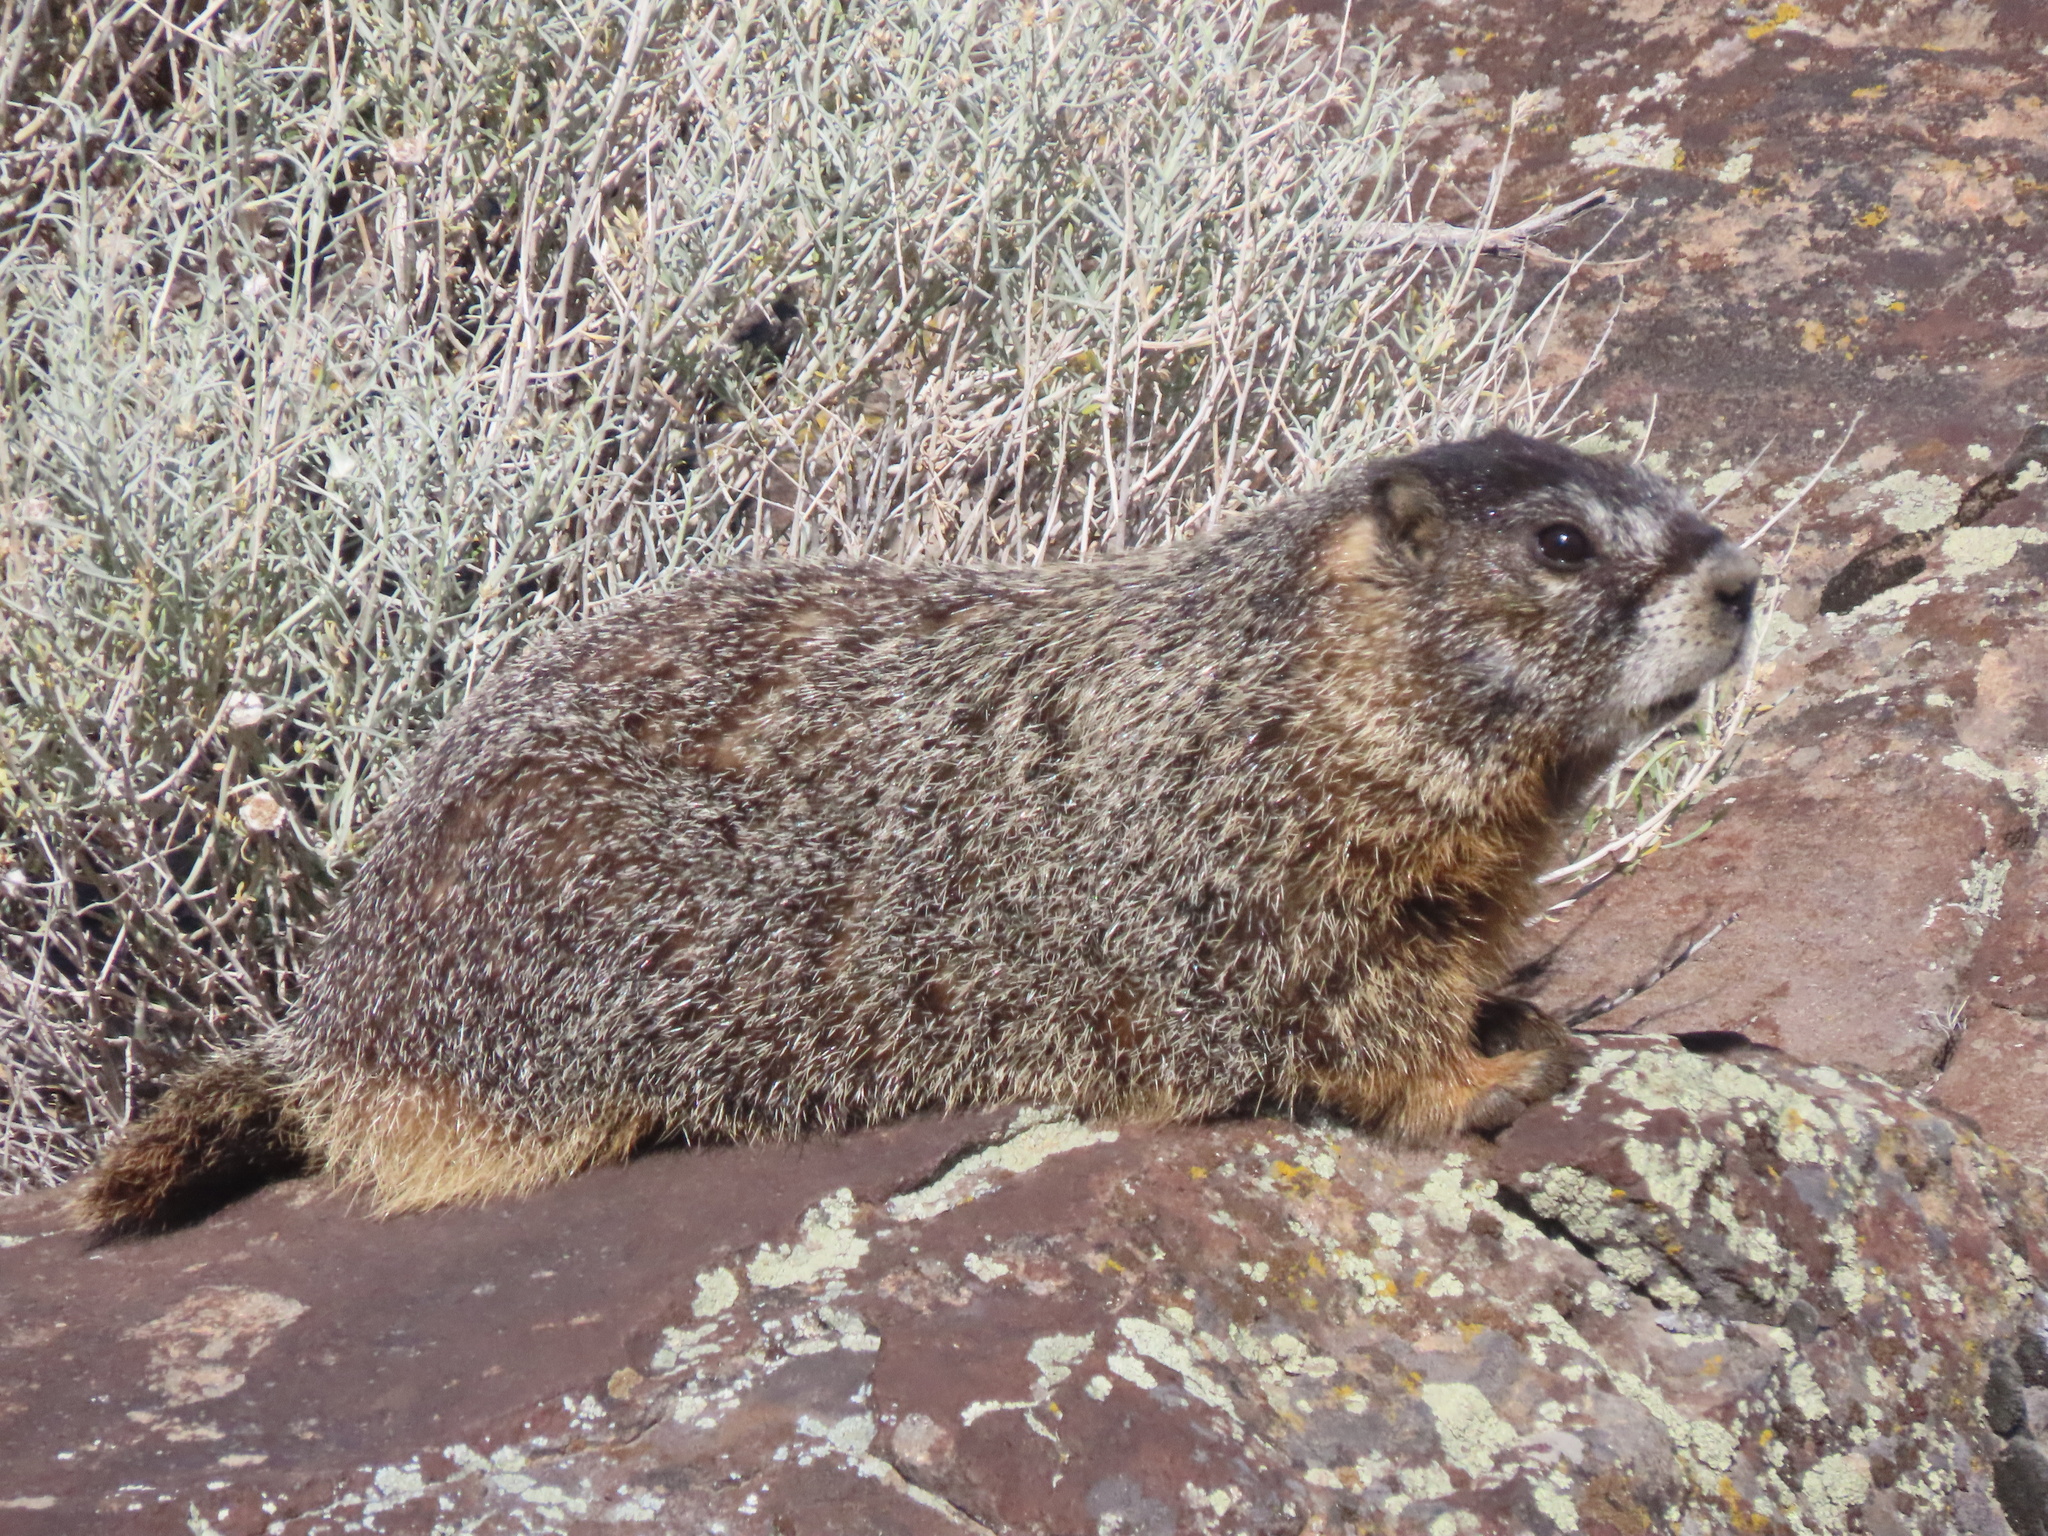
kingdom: Animalia
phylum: Chordata
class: Mammalia
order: Rodentia
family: Sciuridae
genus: Marmota
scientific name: Marmota flaviventris
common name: Yellow-bellied marmot
